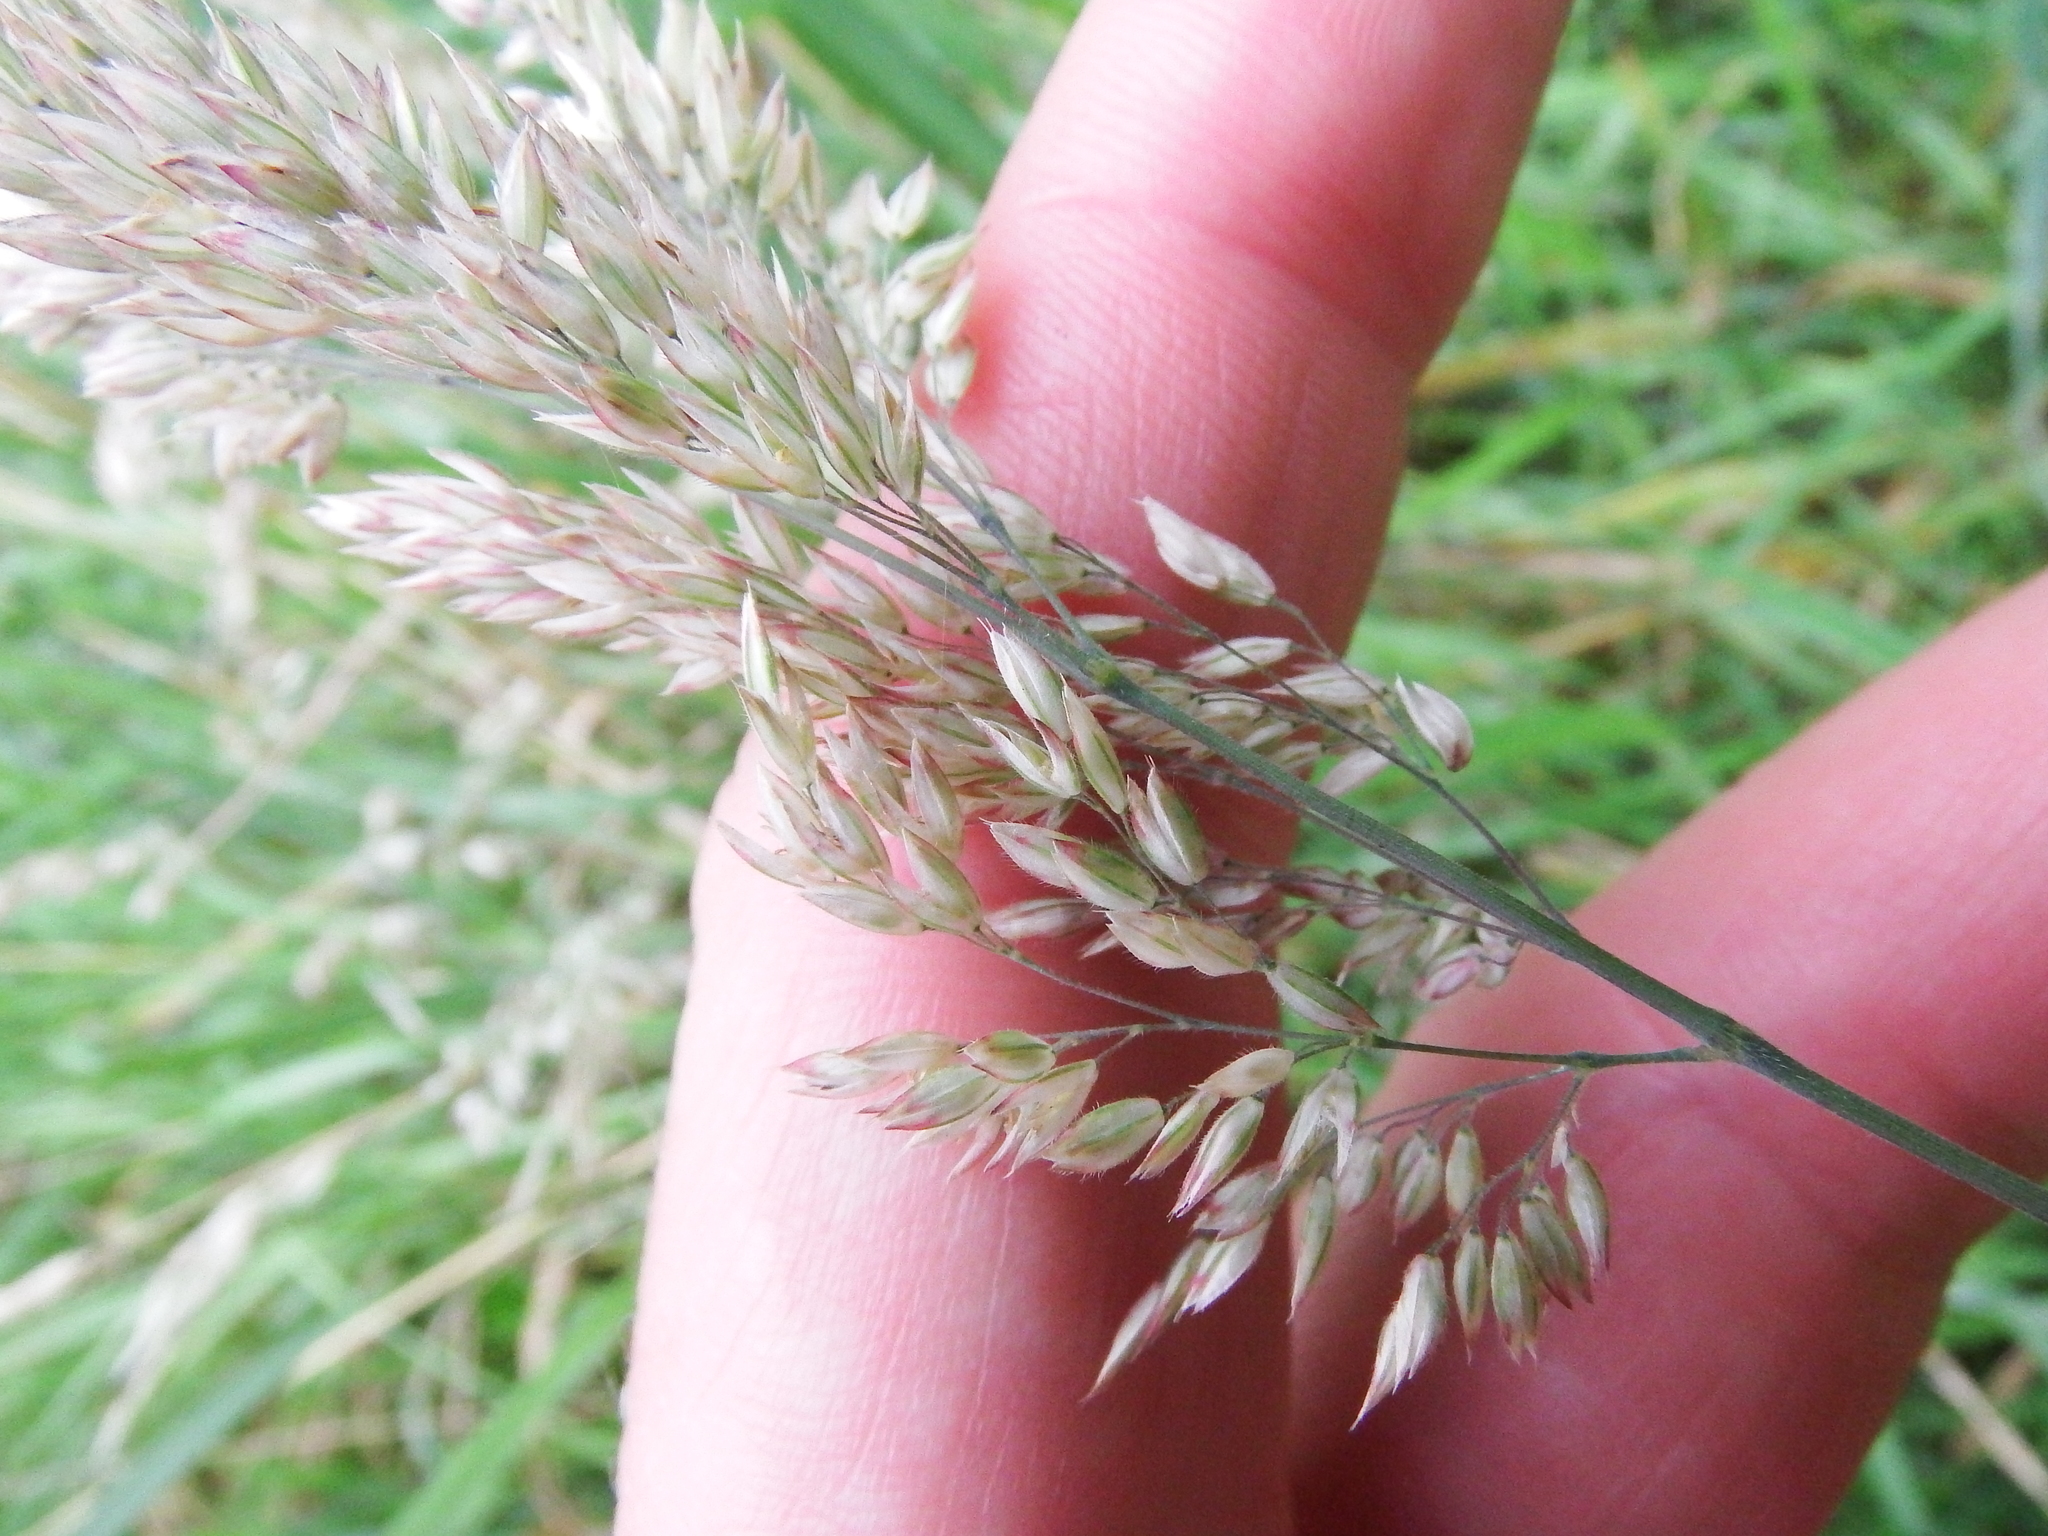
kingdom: Plantae
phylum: Tracheophyta
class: Liliopsida
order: Poales
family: Poaceae
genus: Holcus
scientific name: Holcus lanatus
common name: Yorkshire-fog
